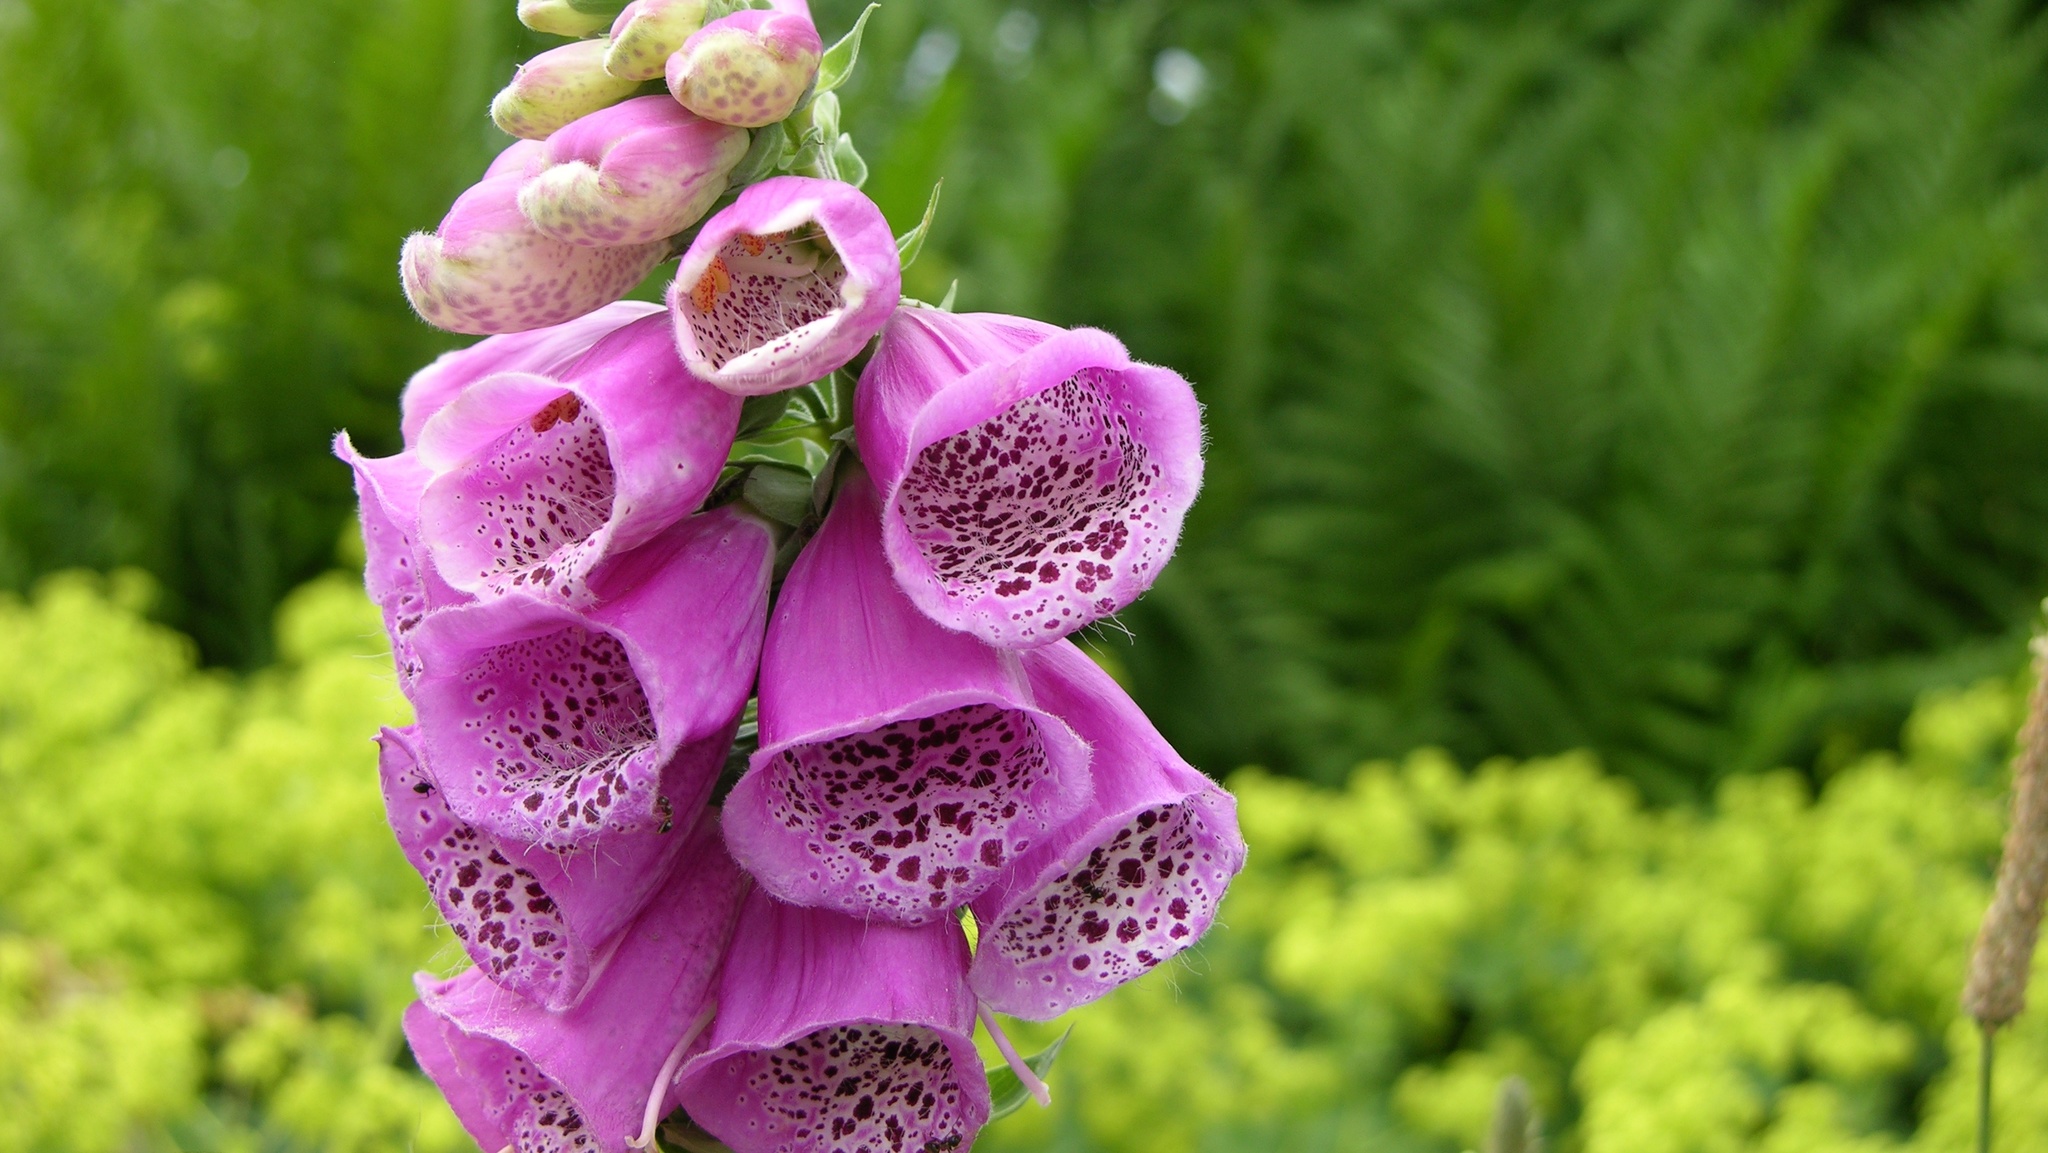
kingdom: Plantae
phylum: Tracheophyta
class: Magnoliopsida
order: Lamiales
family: Plantaginaceae
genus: Digitalis
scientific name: Digitalis purpurea
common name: Foxglove
